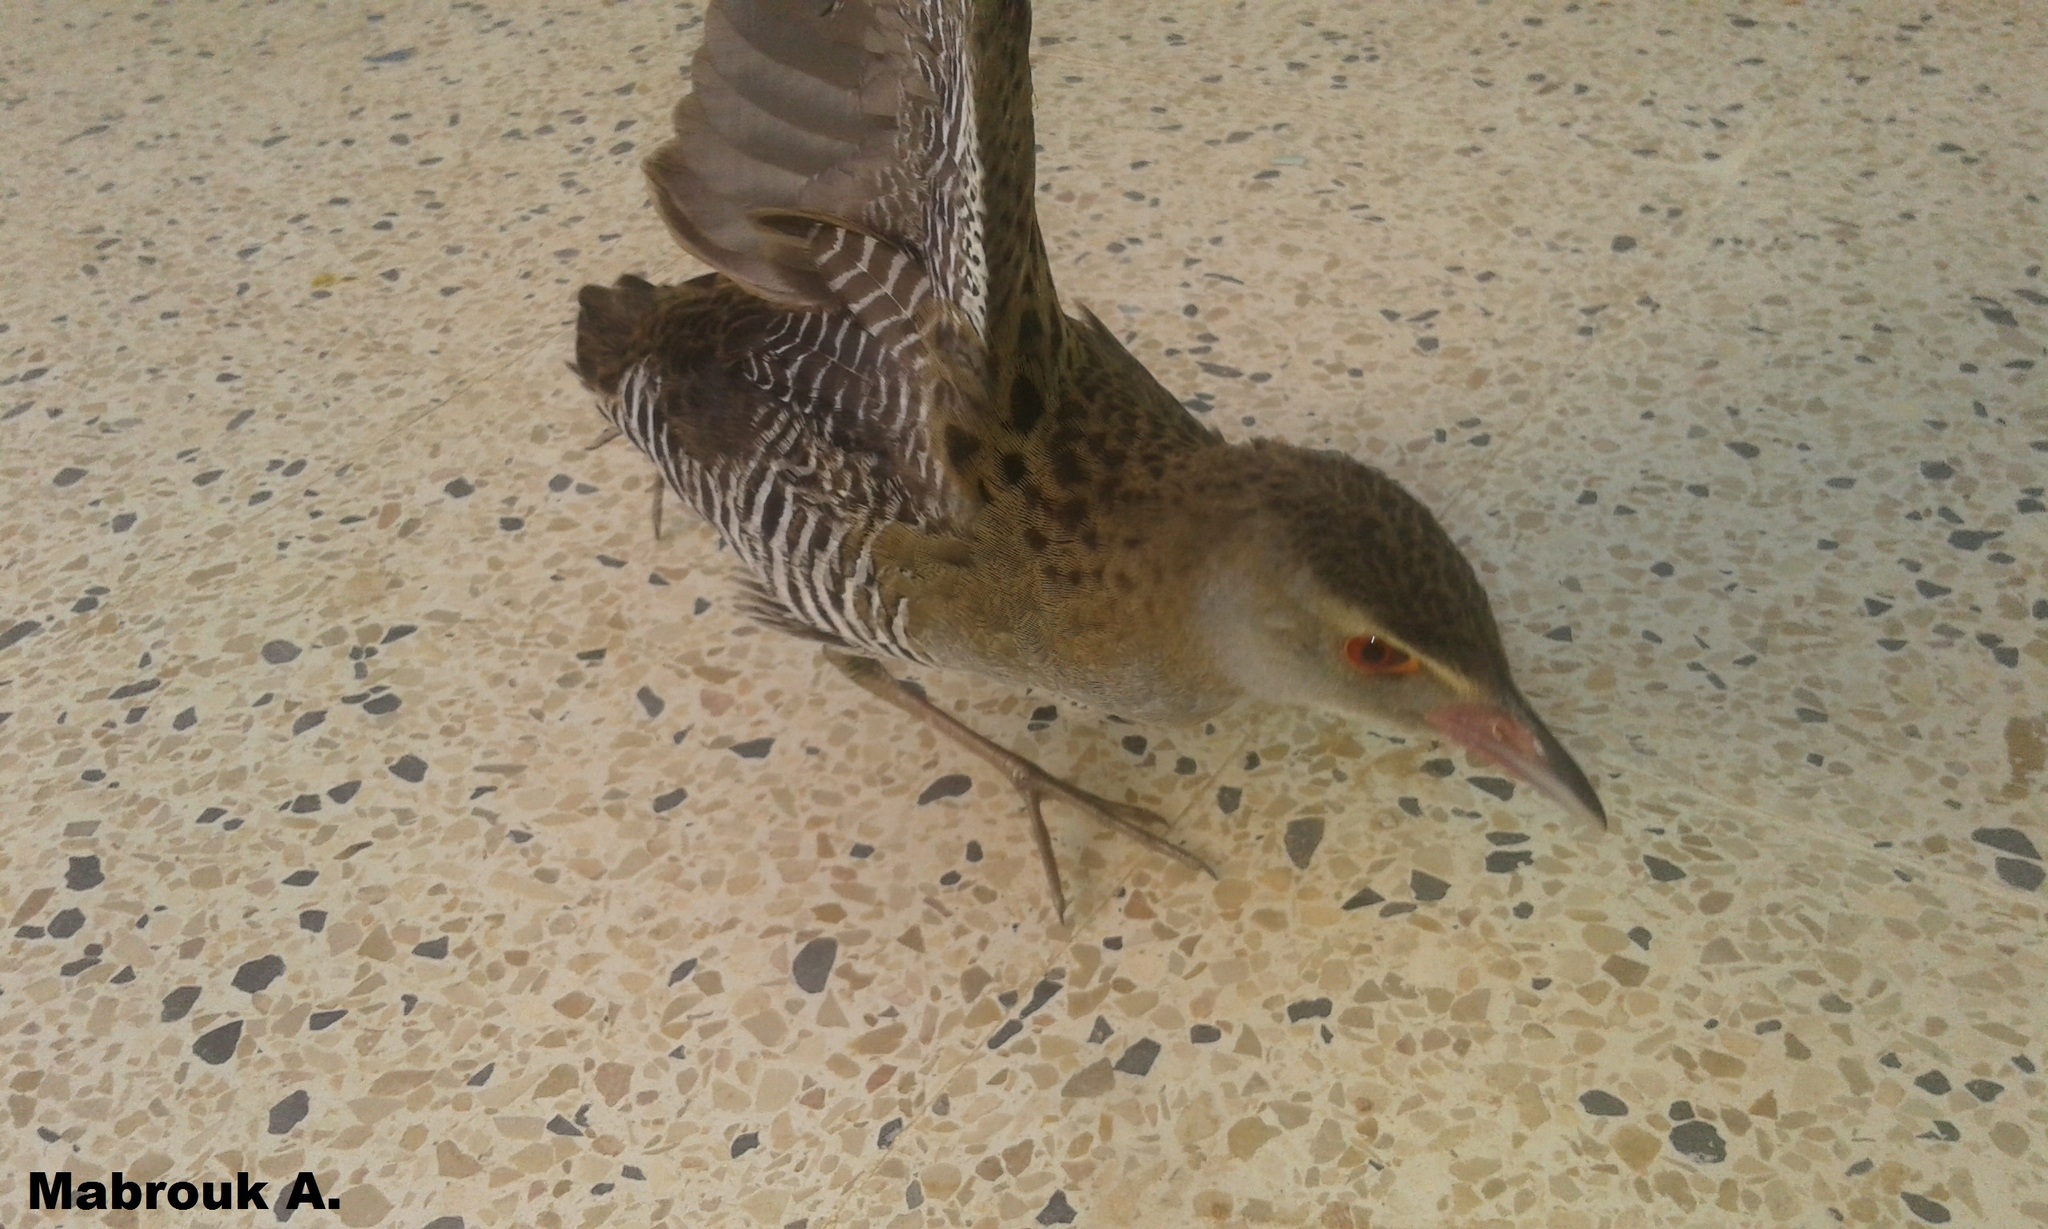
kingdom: Animalia
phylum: Chordata
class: Aves
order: Gruiformes
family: Rallidae
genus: Crex
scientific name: Crex egregia
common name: African crake
